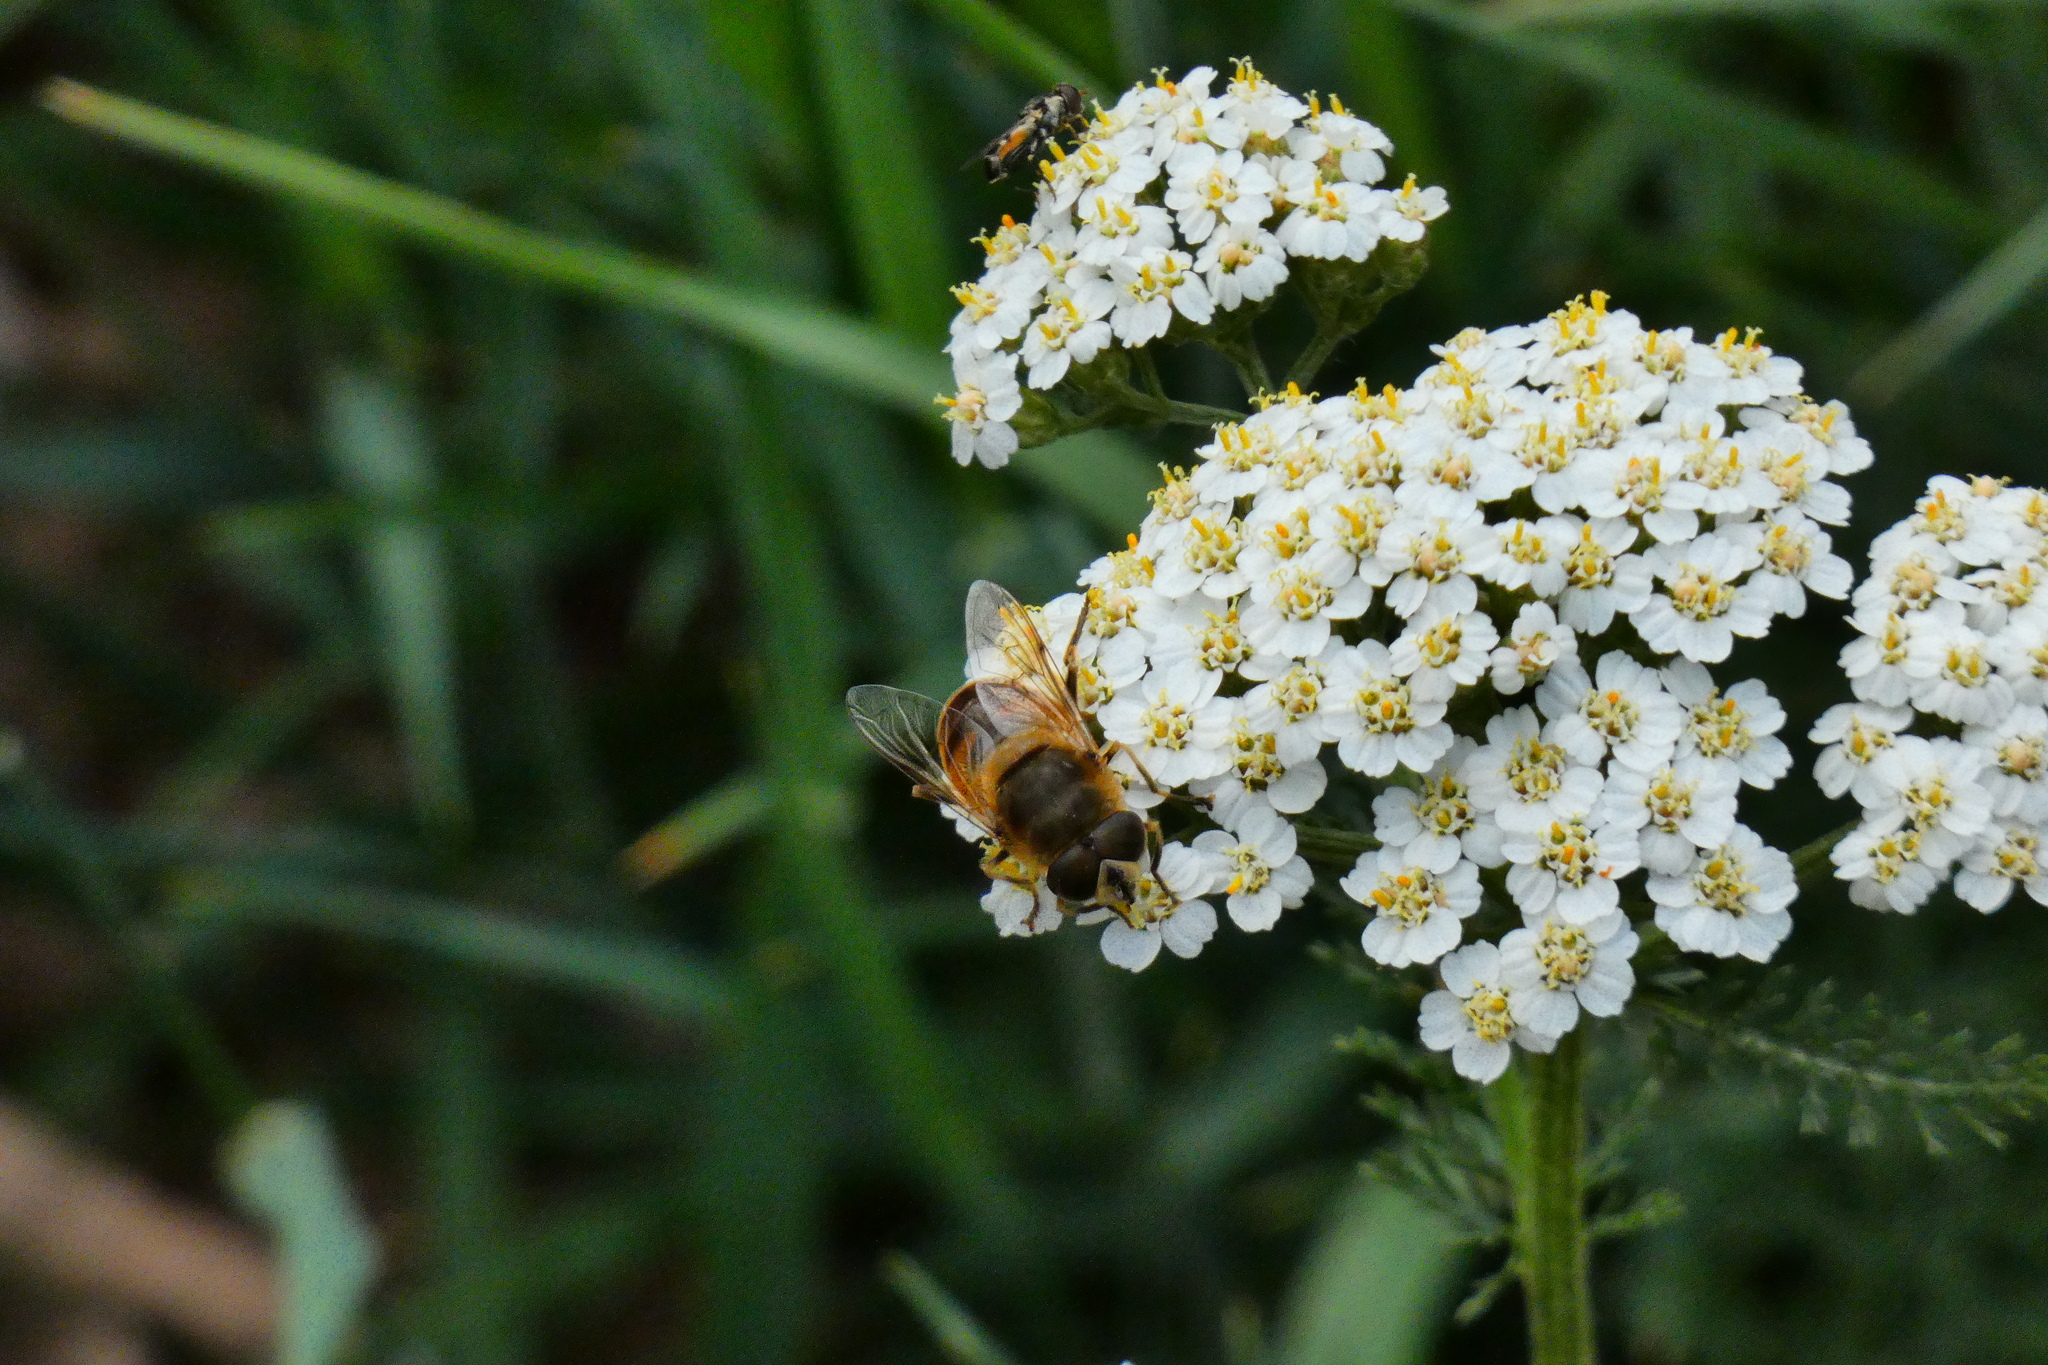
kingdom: Animalia
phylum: Arthropoda
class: Insecta
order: Diptera
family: Syrphidae
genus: Eristalis
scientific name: Eristalis tenax
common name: Drone fly
